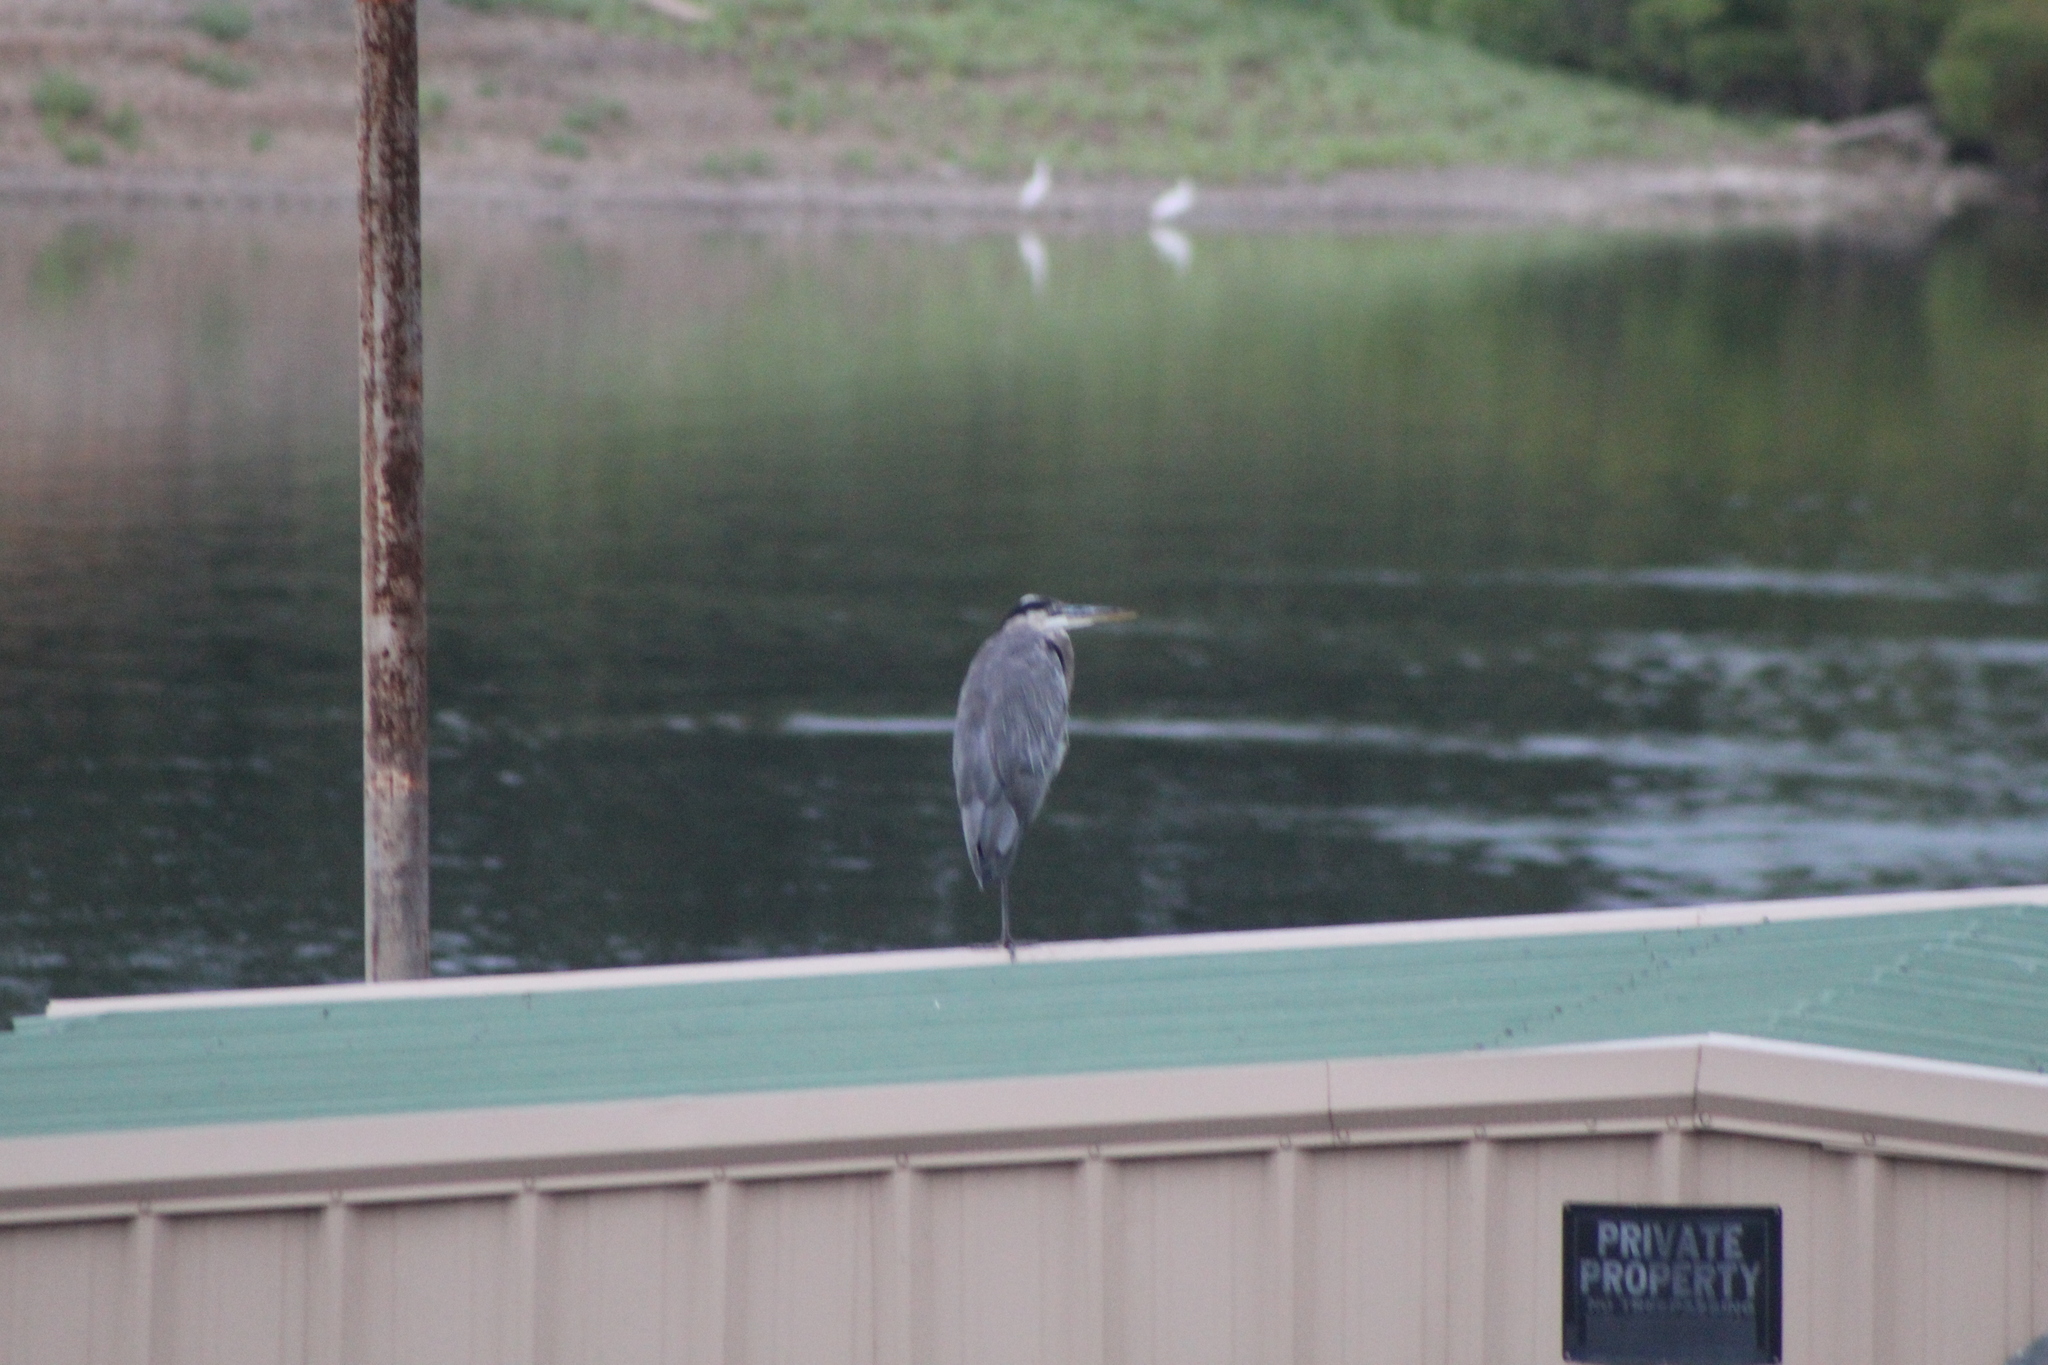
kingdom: Animalia
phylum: Chordata
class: Aves
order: Pelecaniformes
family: Ardeidae
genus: Ardea
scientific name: Ardea herodias
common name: Great blue heron
